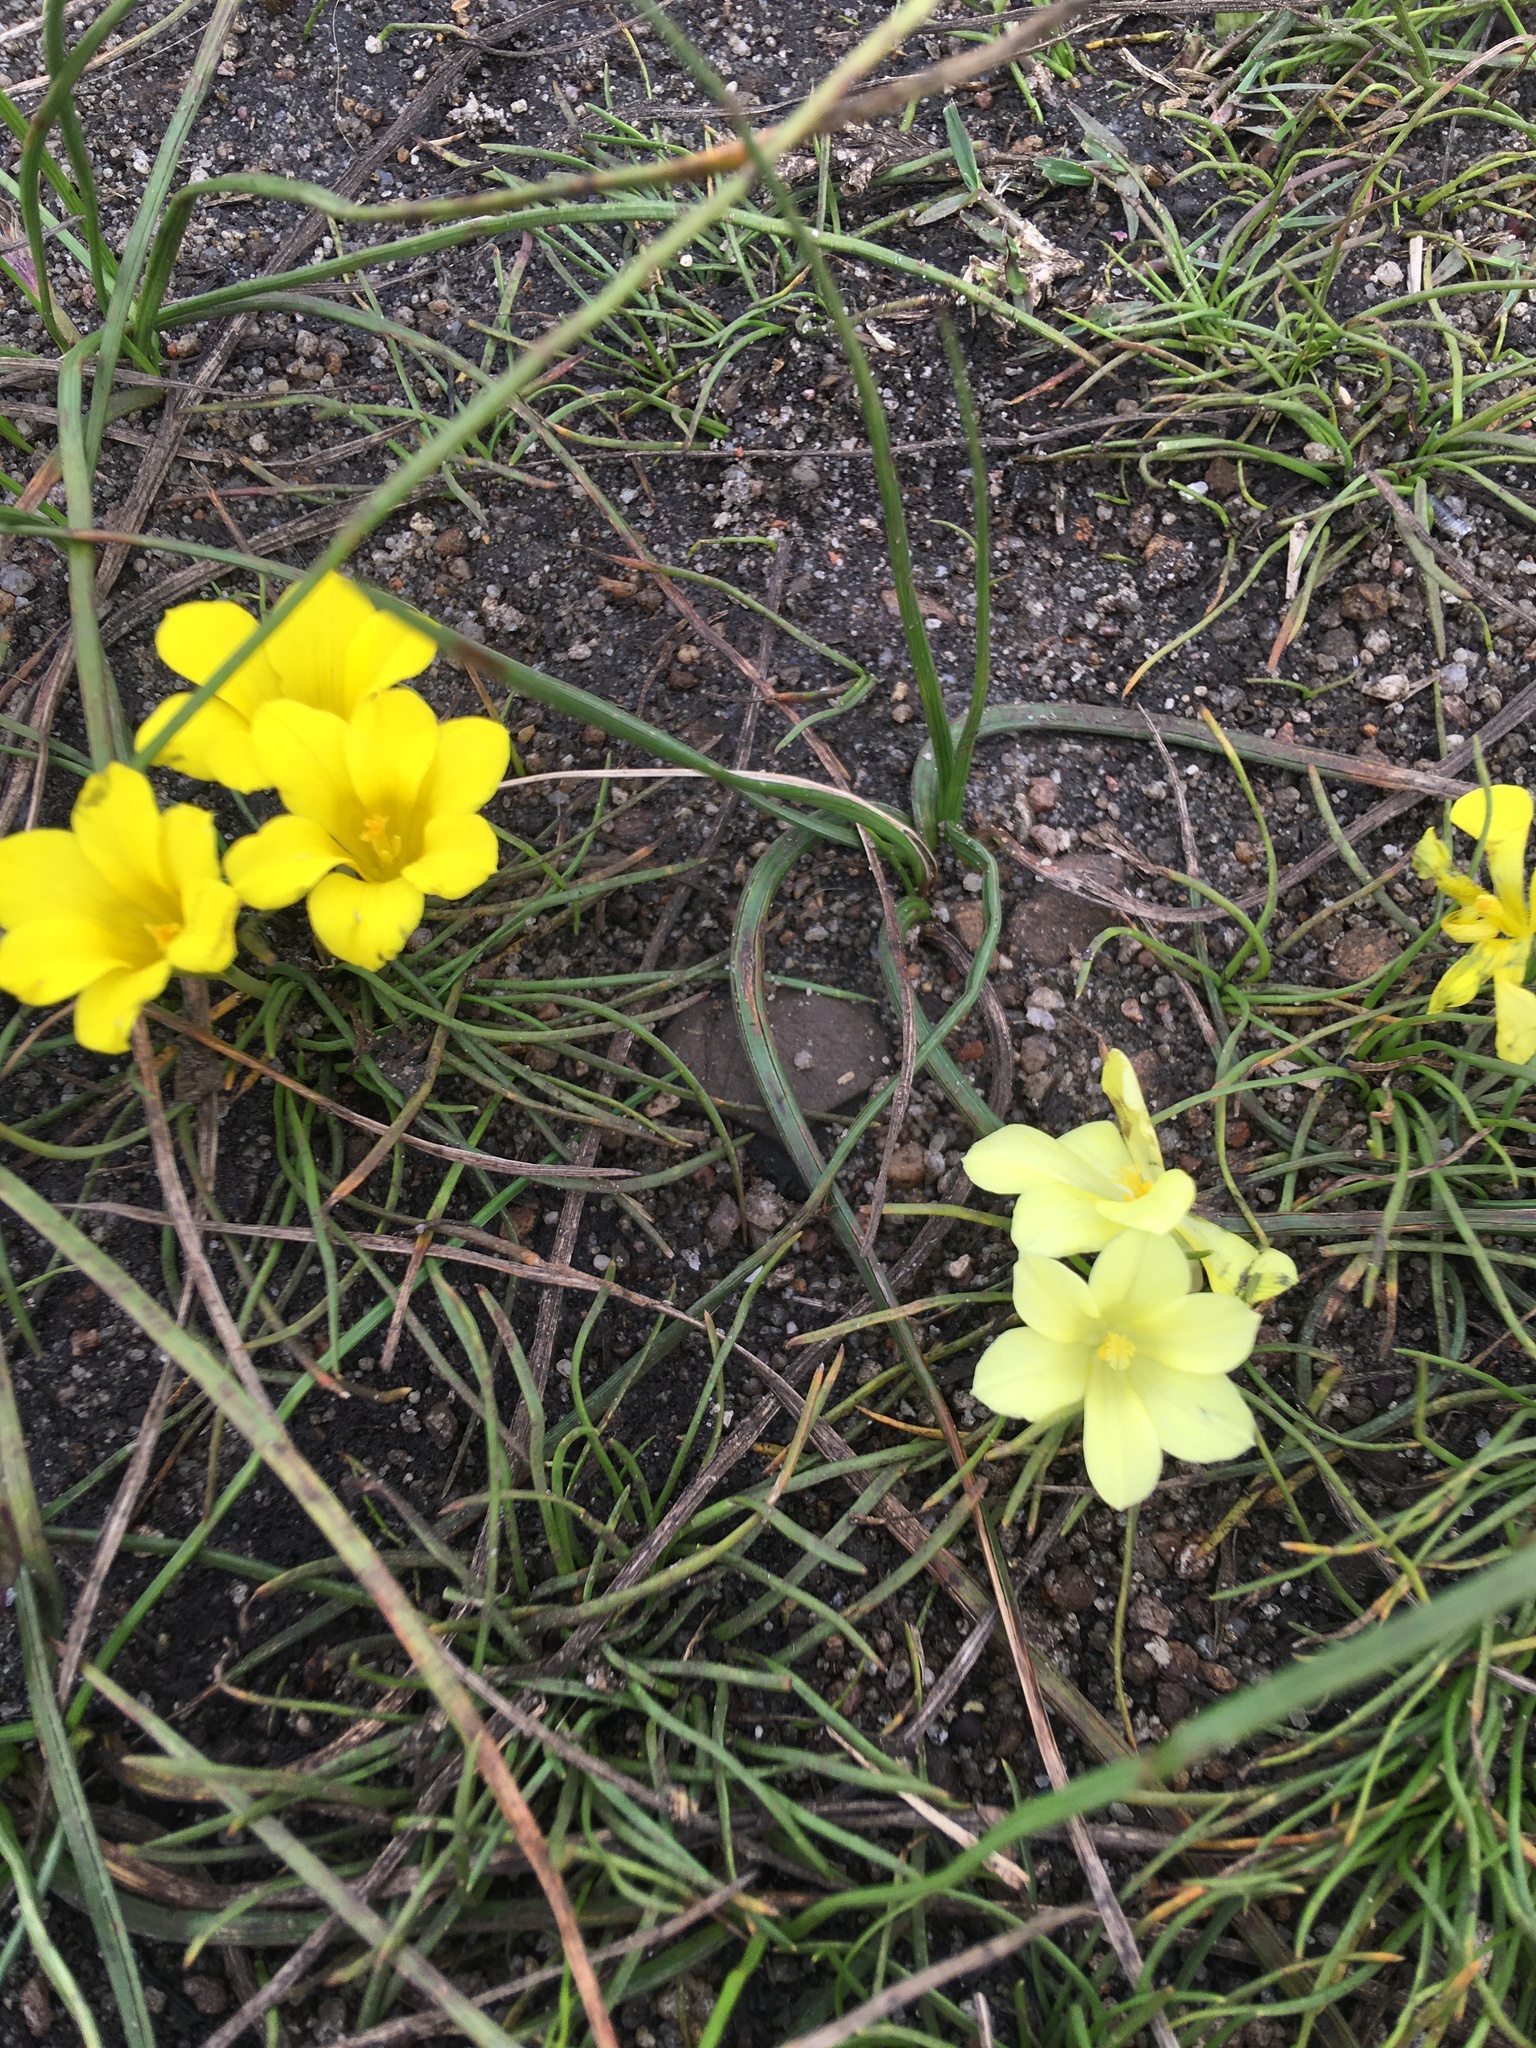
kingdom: Plantae
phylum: Tracheophyta
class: Liliopsida
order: Asparagales
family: Iridaceae
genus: Moraea
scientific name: Moraea fugacissima
